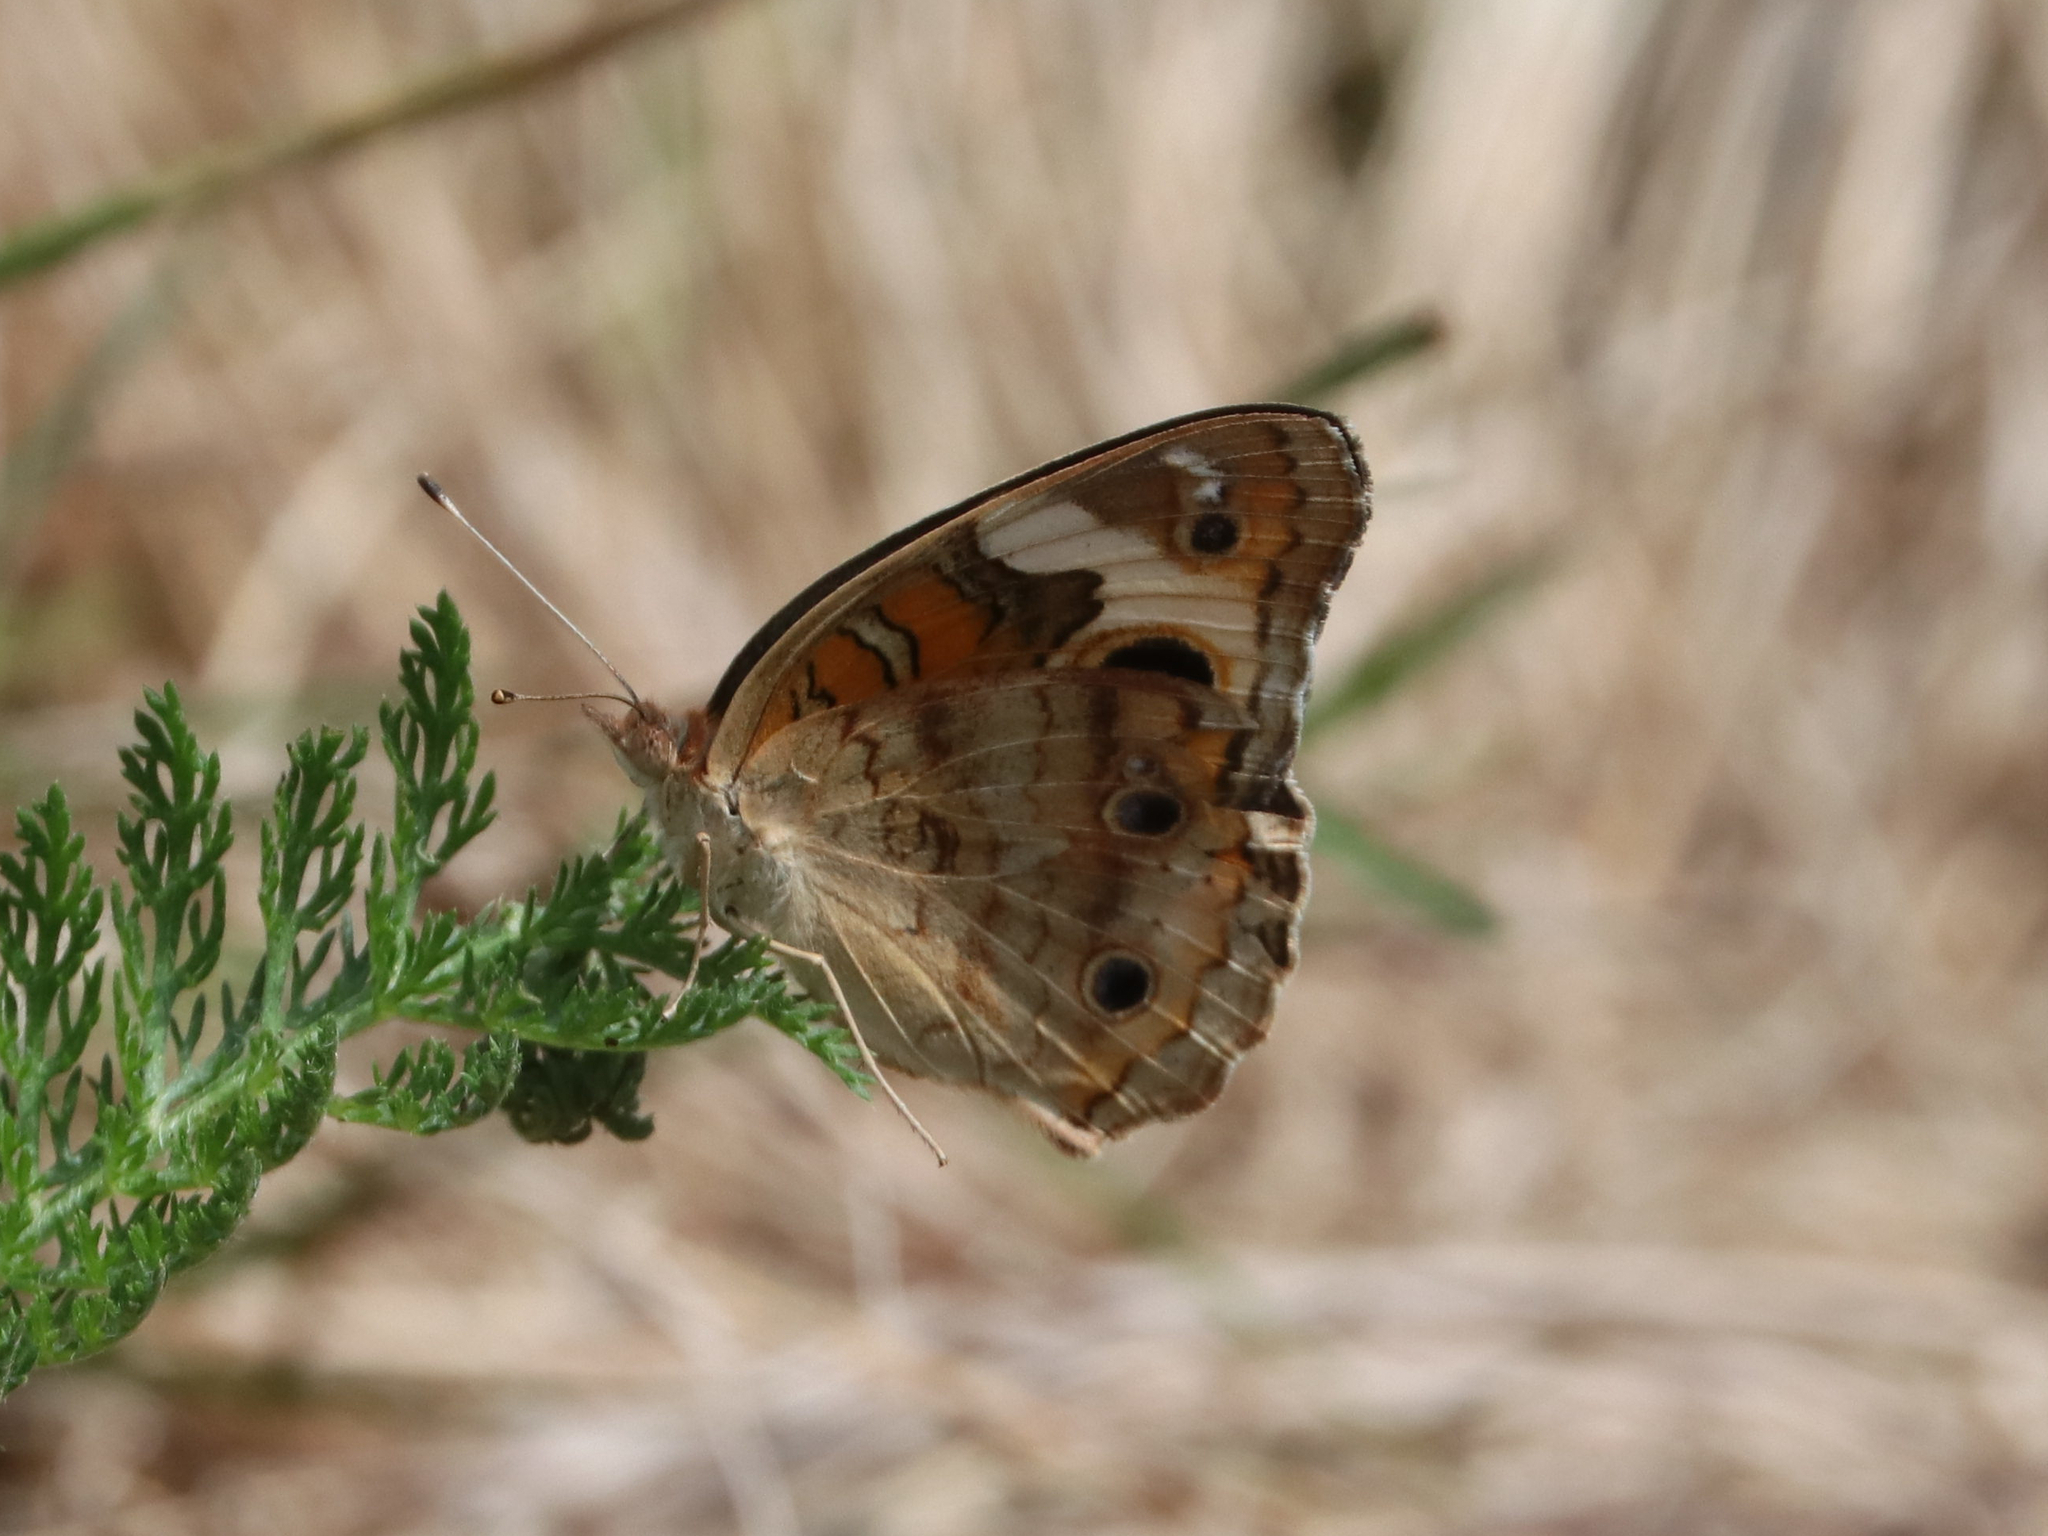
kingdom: Animalia
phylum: Arthropoda
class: Insecta
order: Lepidoptera
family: Nymphalidae
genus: Junonia
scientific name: Junonia coenia
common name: Common buckeye
